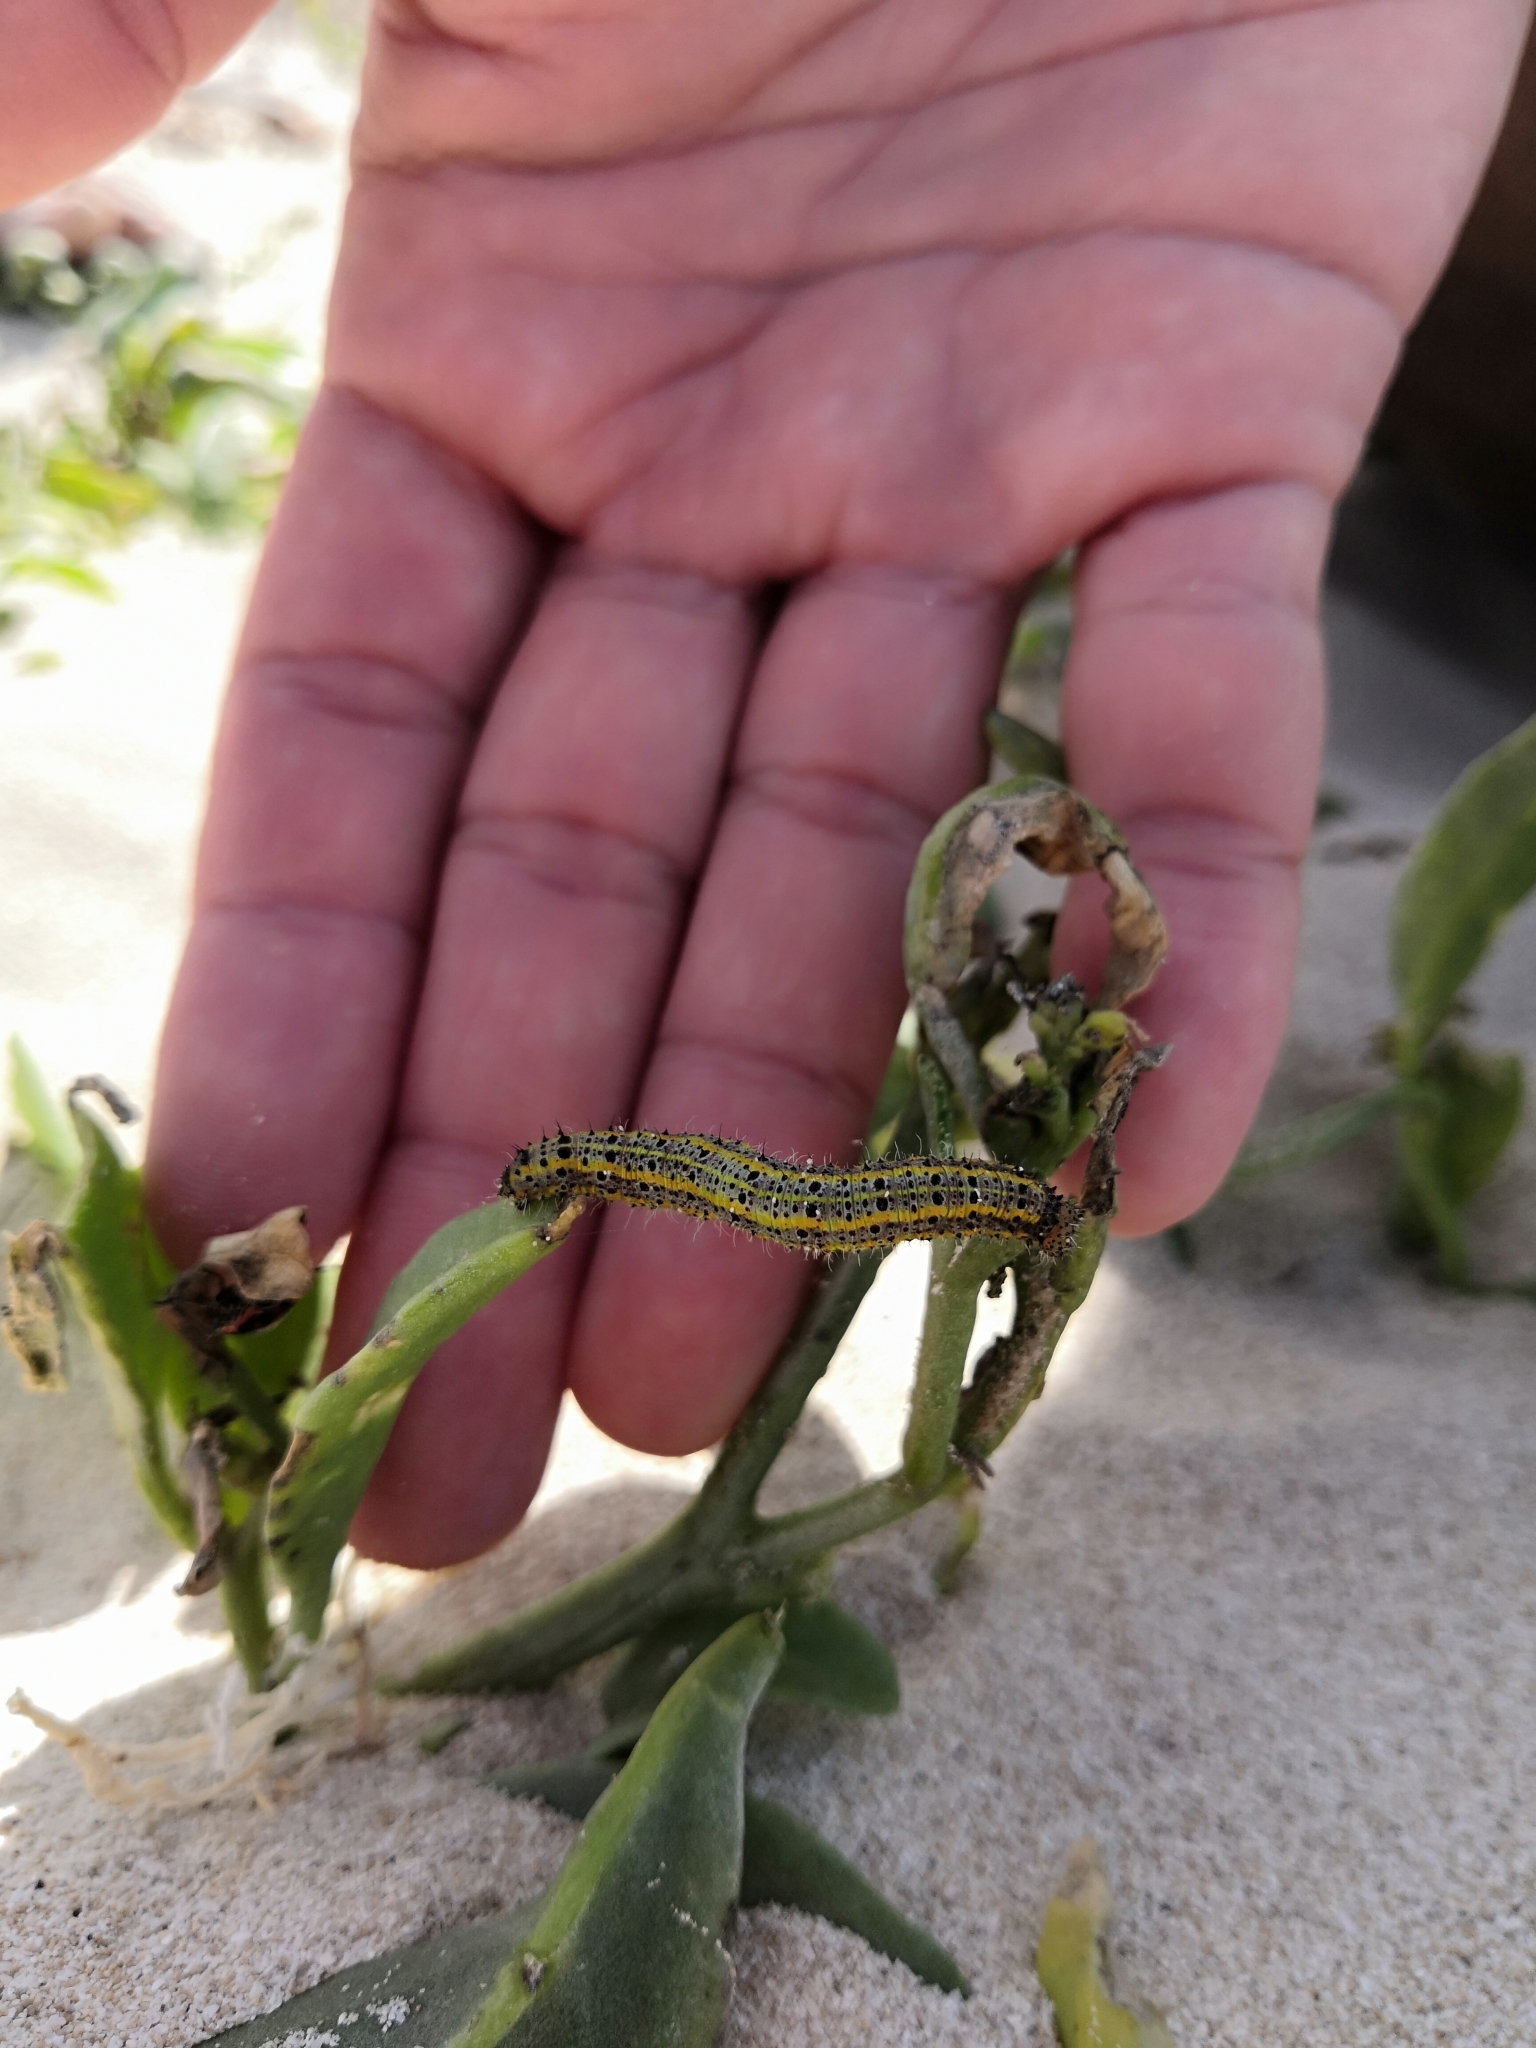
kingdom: Animalia
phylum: Arthropoda
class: Insecta
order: Lepidoptera
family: Pieridae
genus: Ascia
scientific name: Ascia monuste
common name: Great southern white
